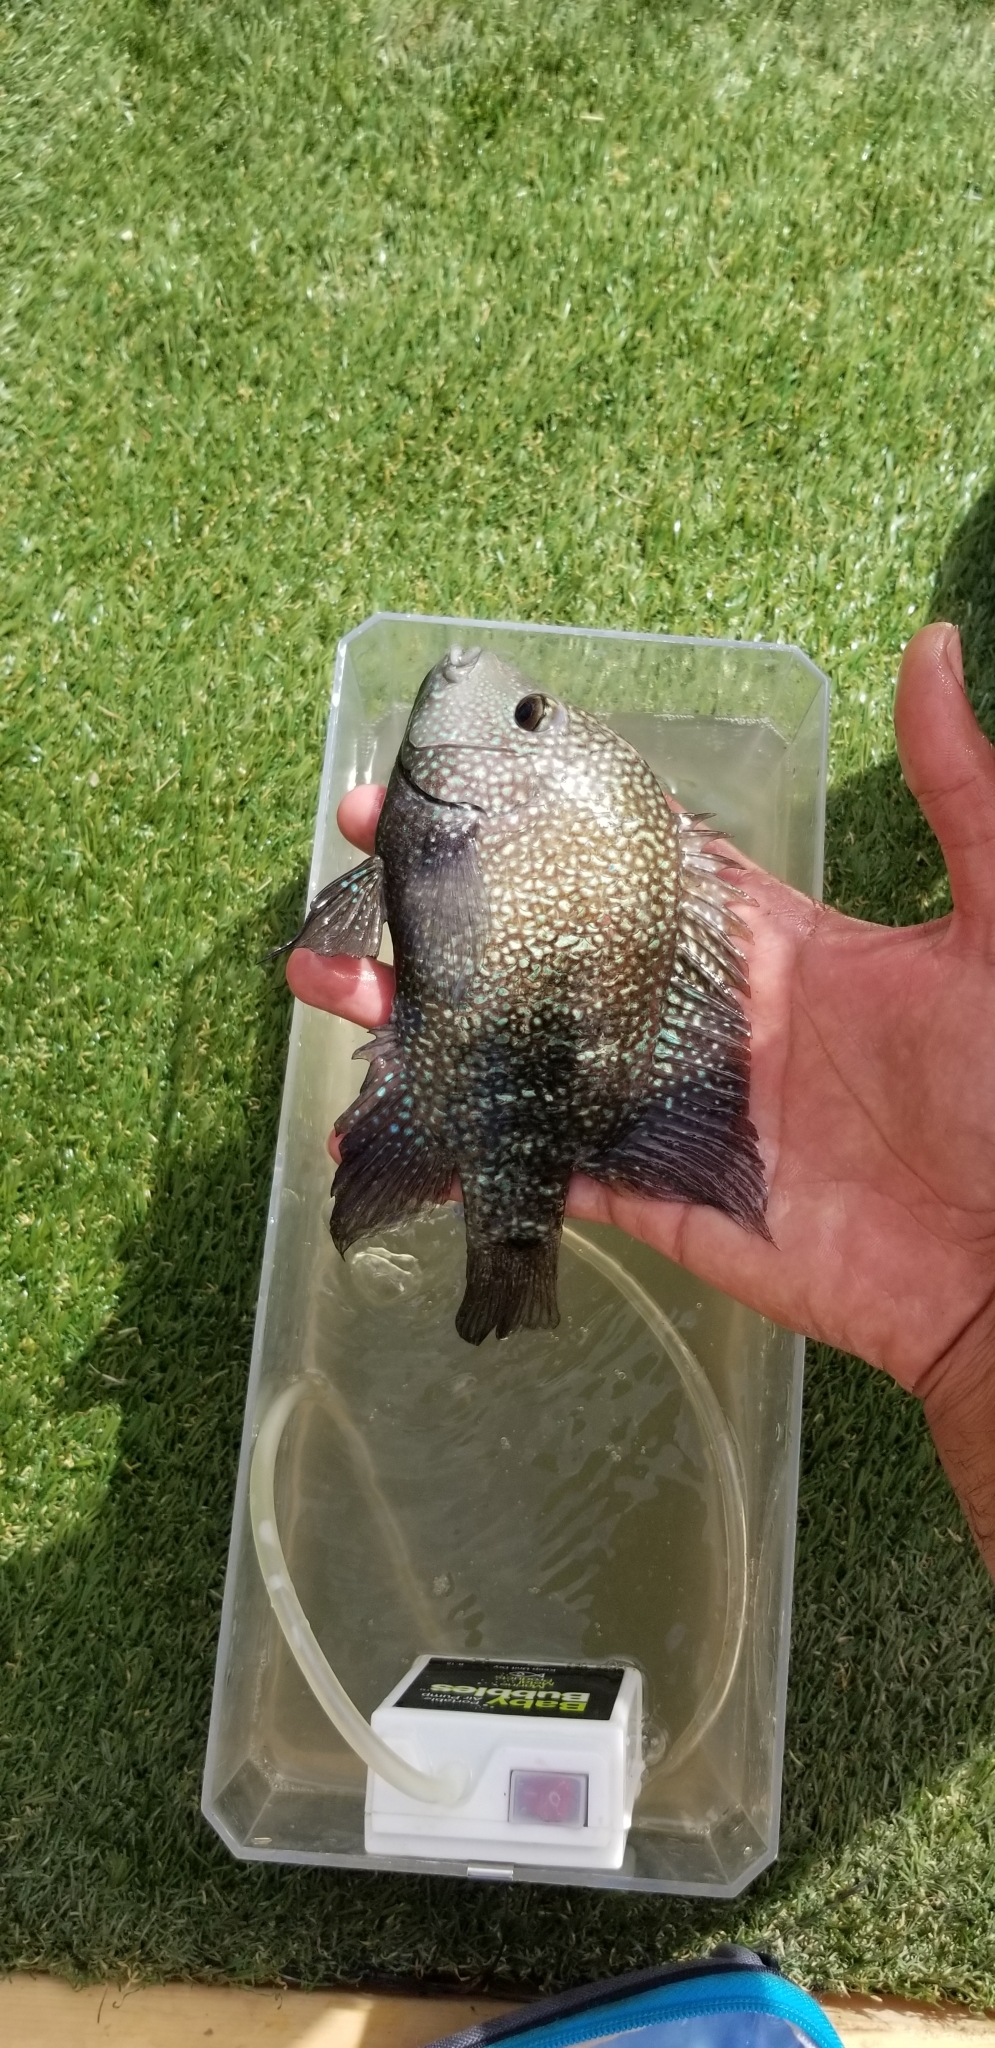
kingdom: Animalia
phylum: Chordata
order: Perciformes
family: Cichlidae
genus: Herichthys
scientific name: Herichthys cyanoguttatus
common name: Rio grande cichlid
